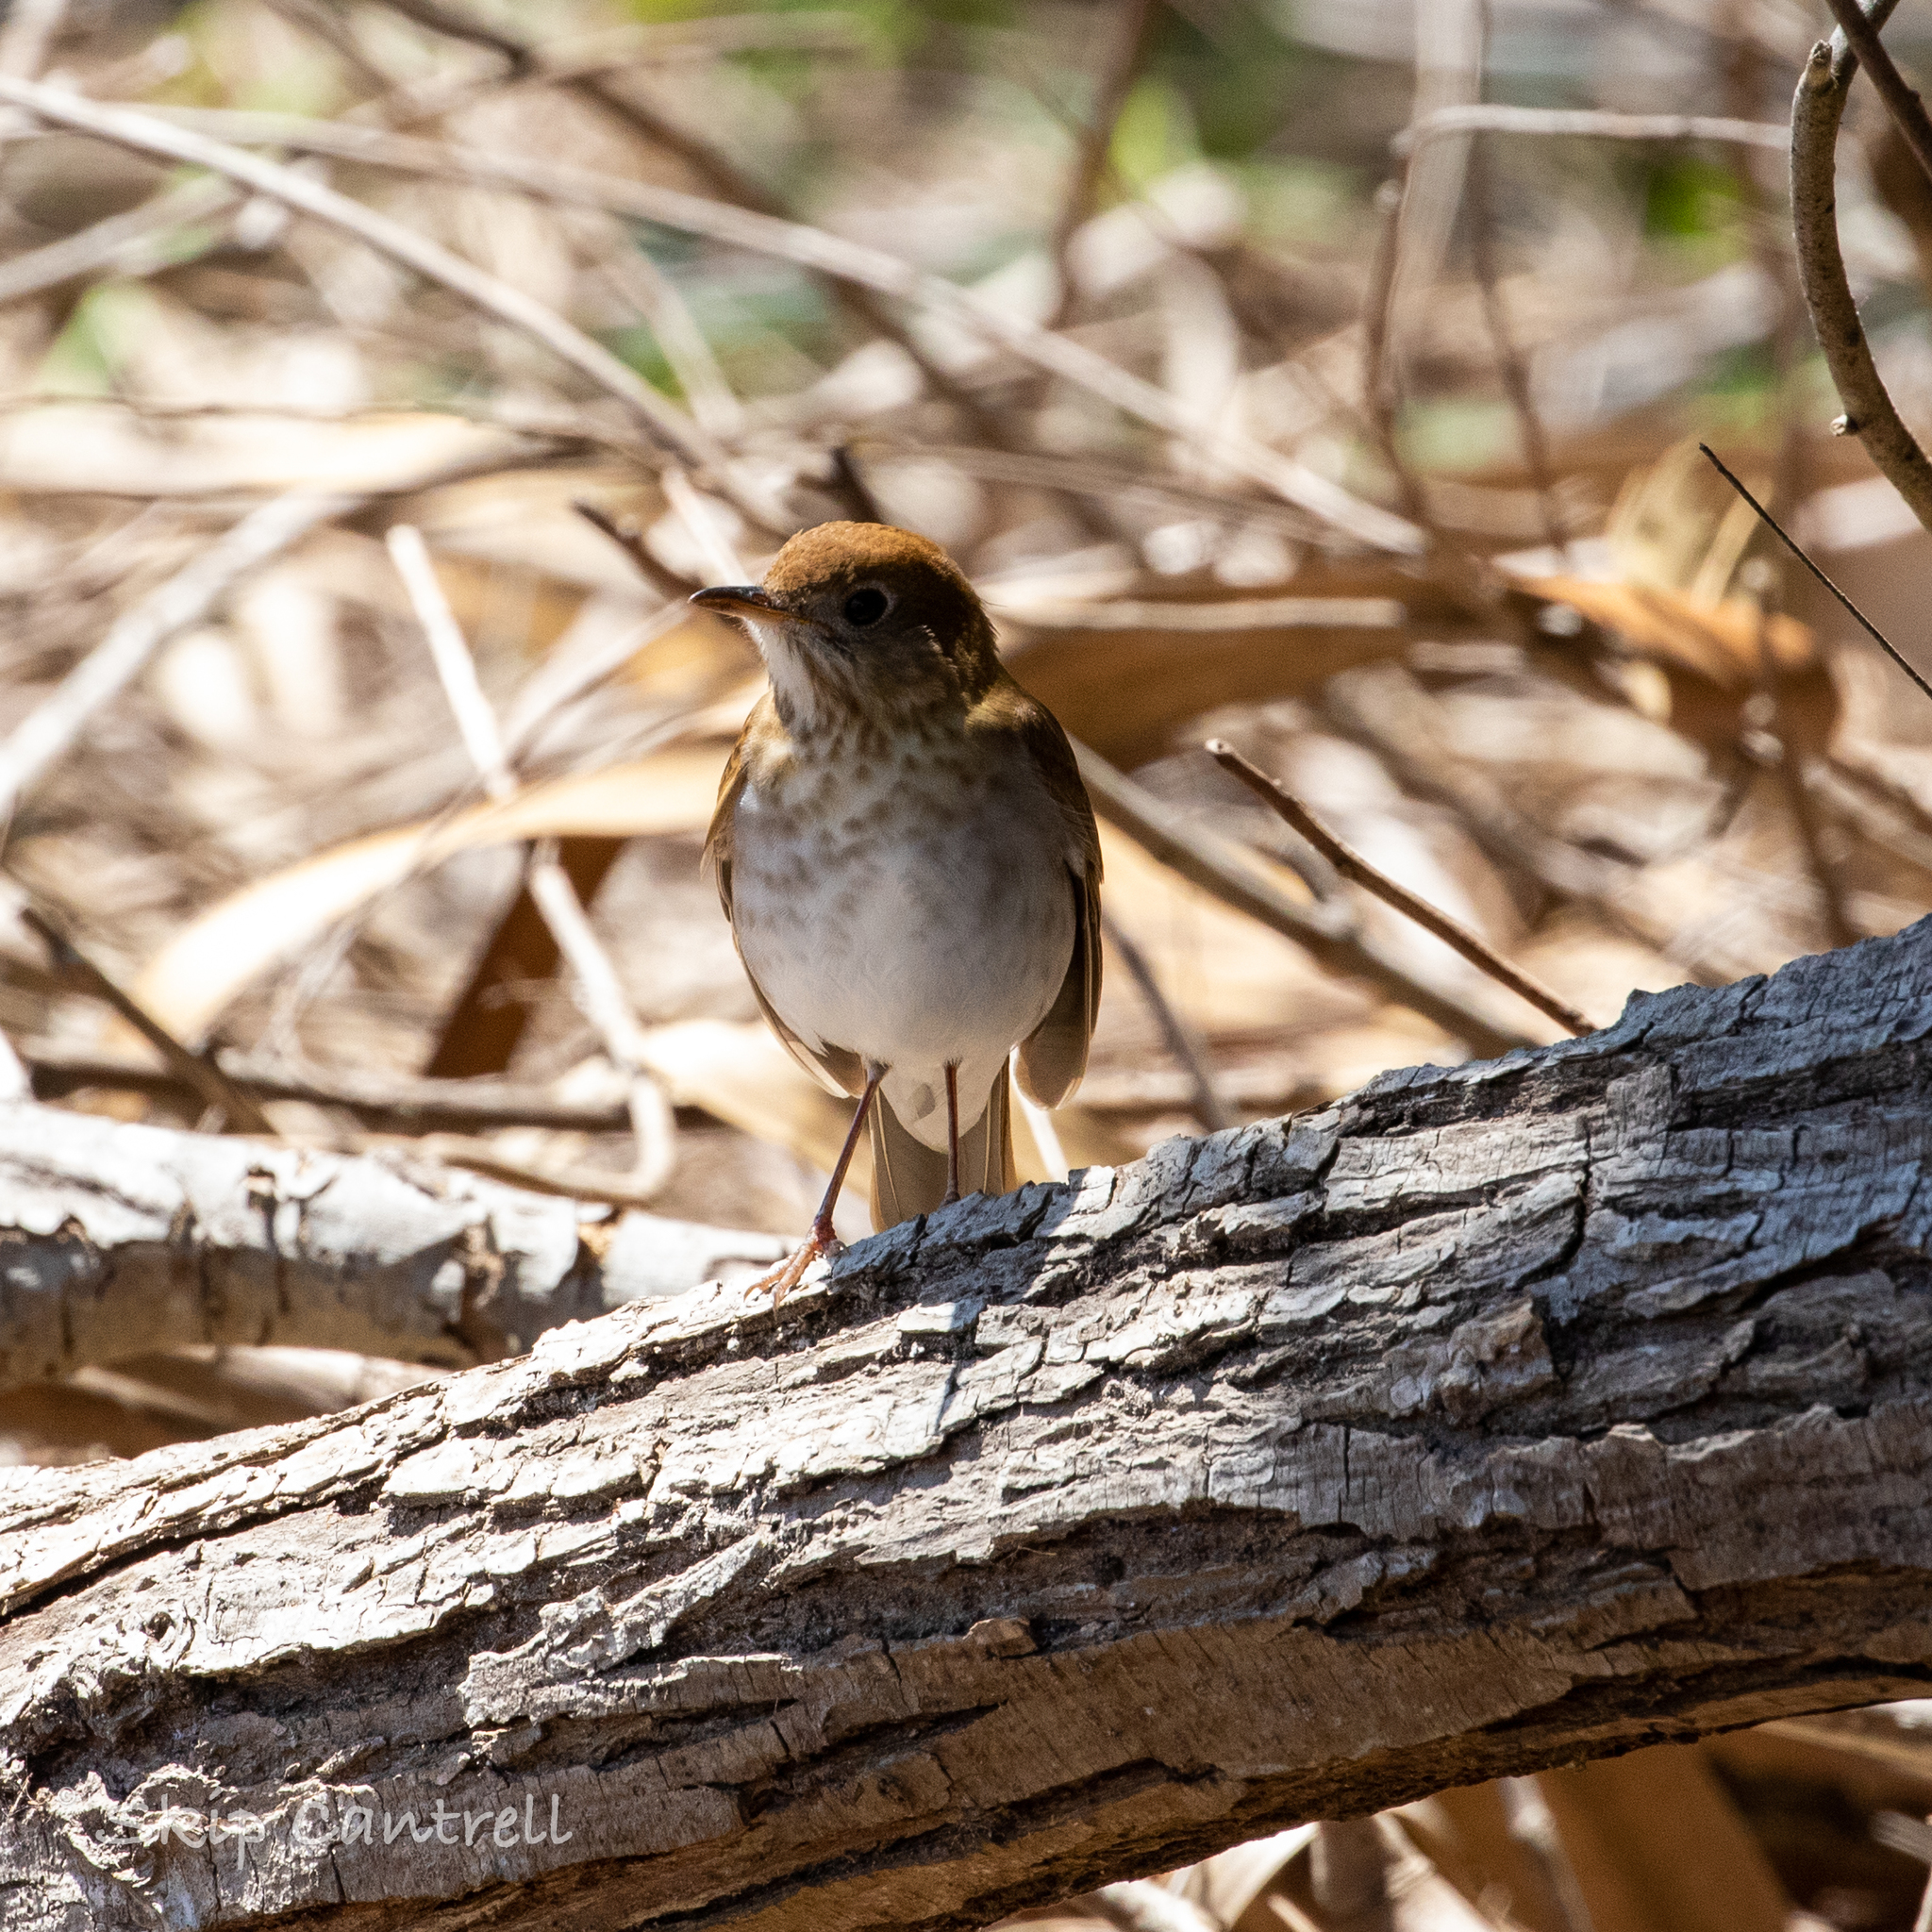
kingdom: Animalia
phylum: Chordata
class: Aves
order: Passeriformes
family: Turdidae
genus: Catharus
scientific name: Catharus fuscescens
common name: Veery
